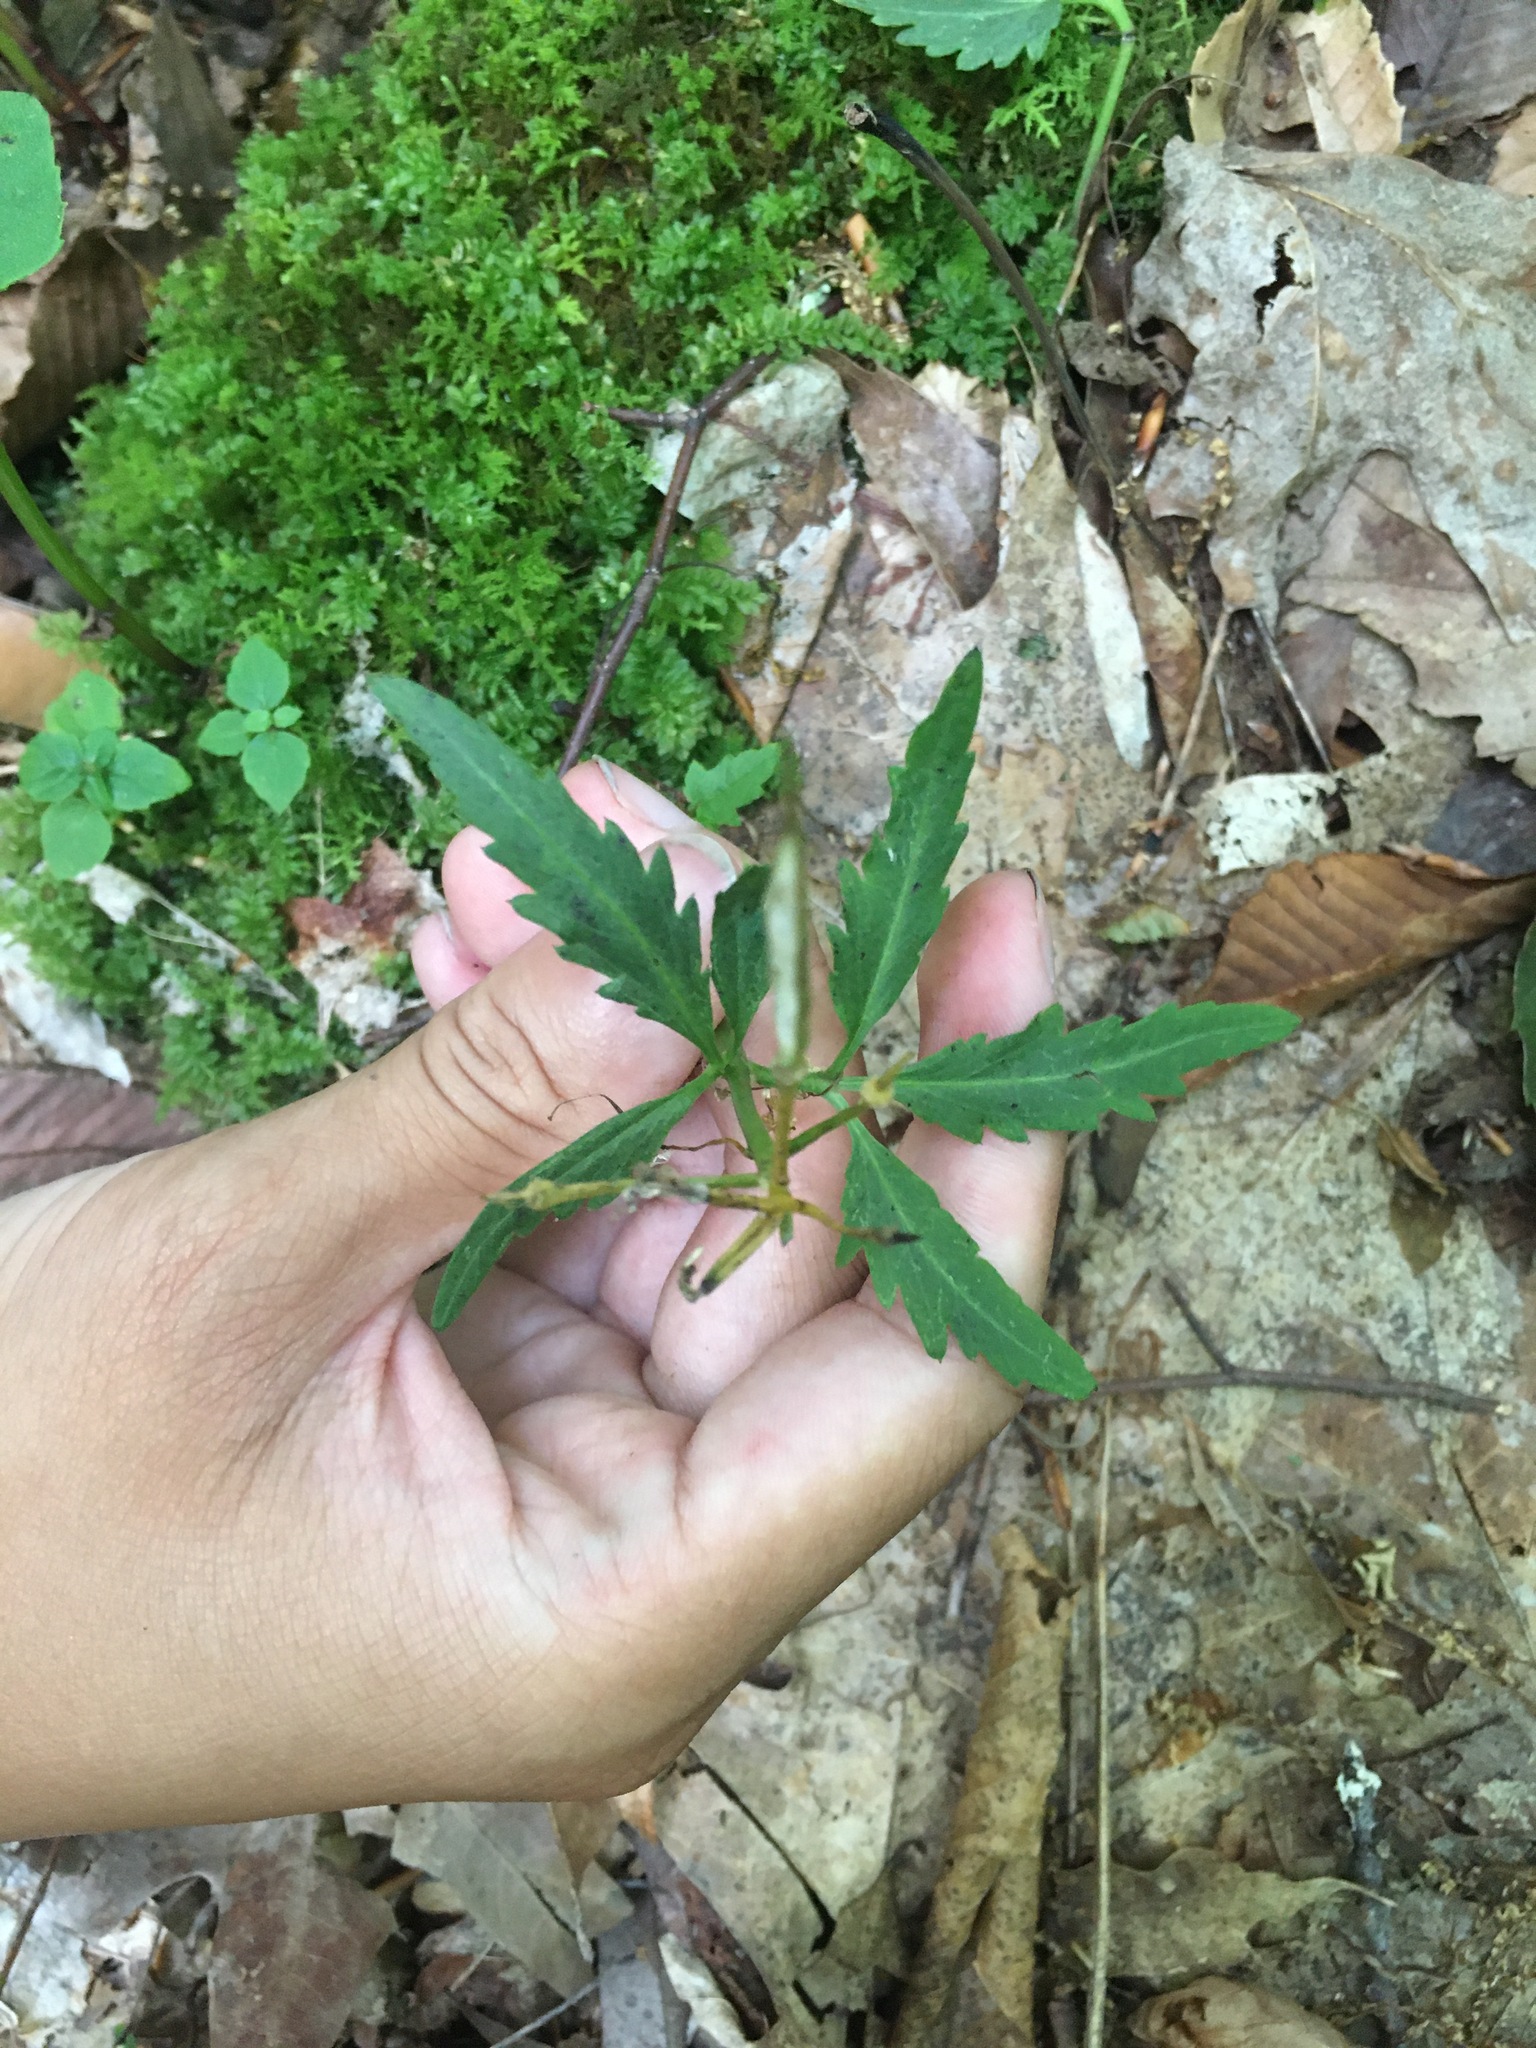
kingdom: Plantae
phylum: Tracheophyta
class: Magnoliopsida
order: Brassicales
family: Brassicaceae
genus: Cardamine
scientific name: Cardamine concatenata
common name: Cut-leaf toothcup
